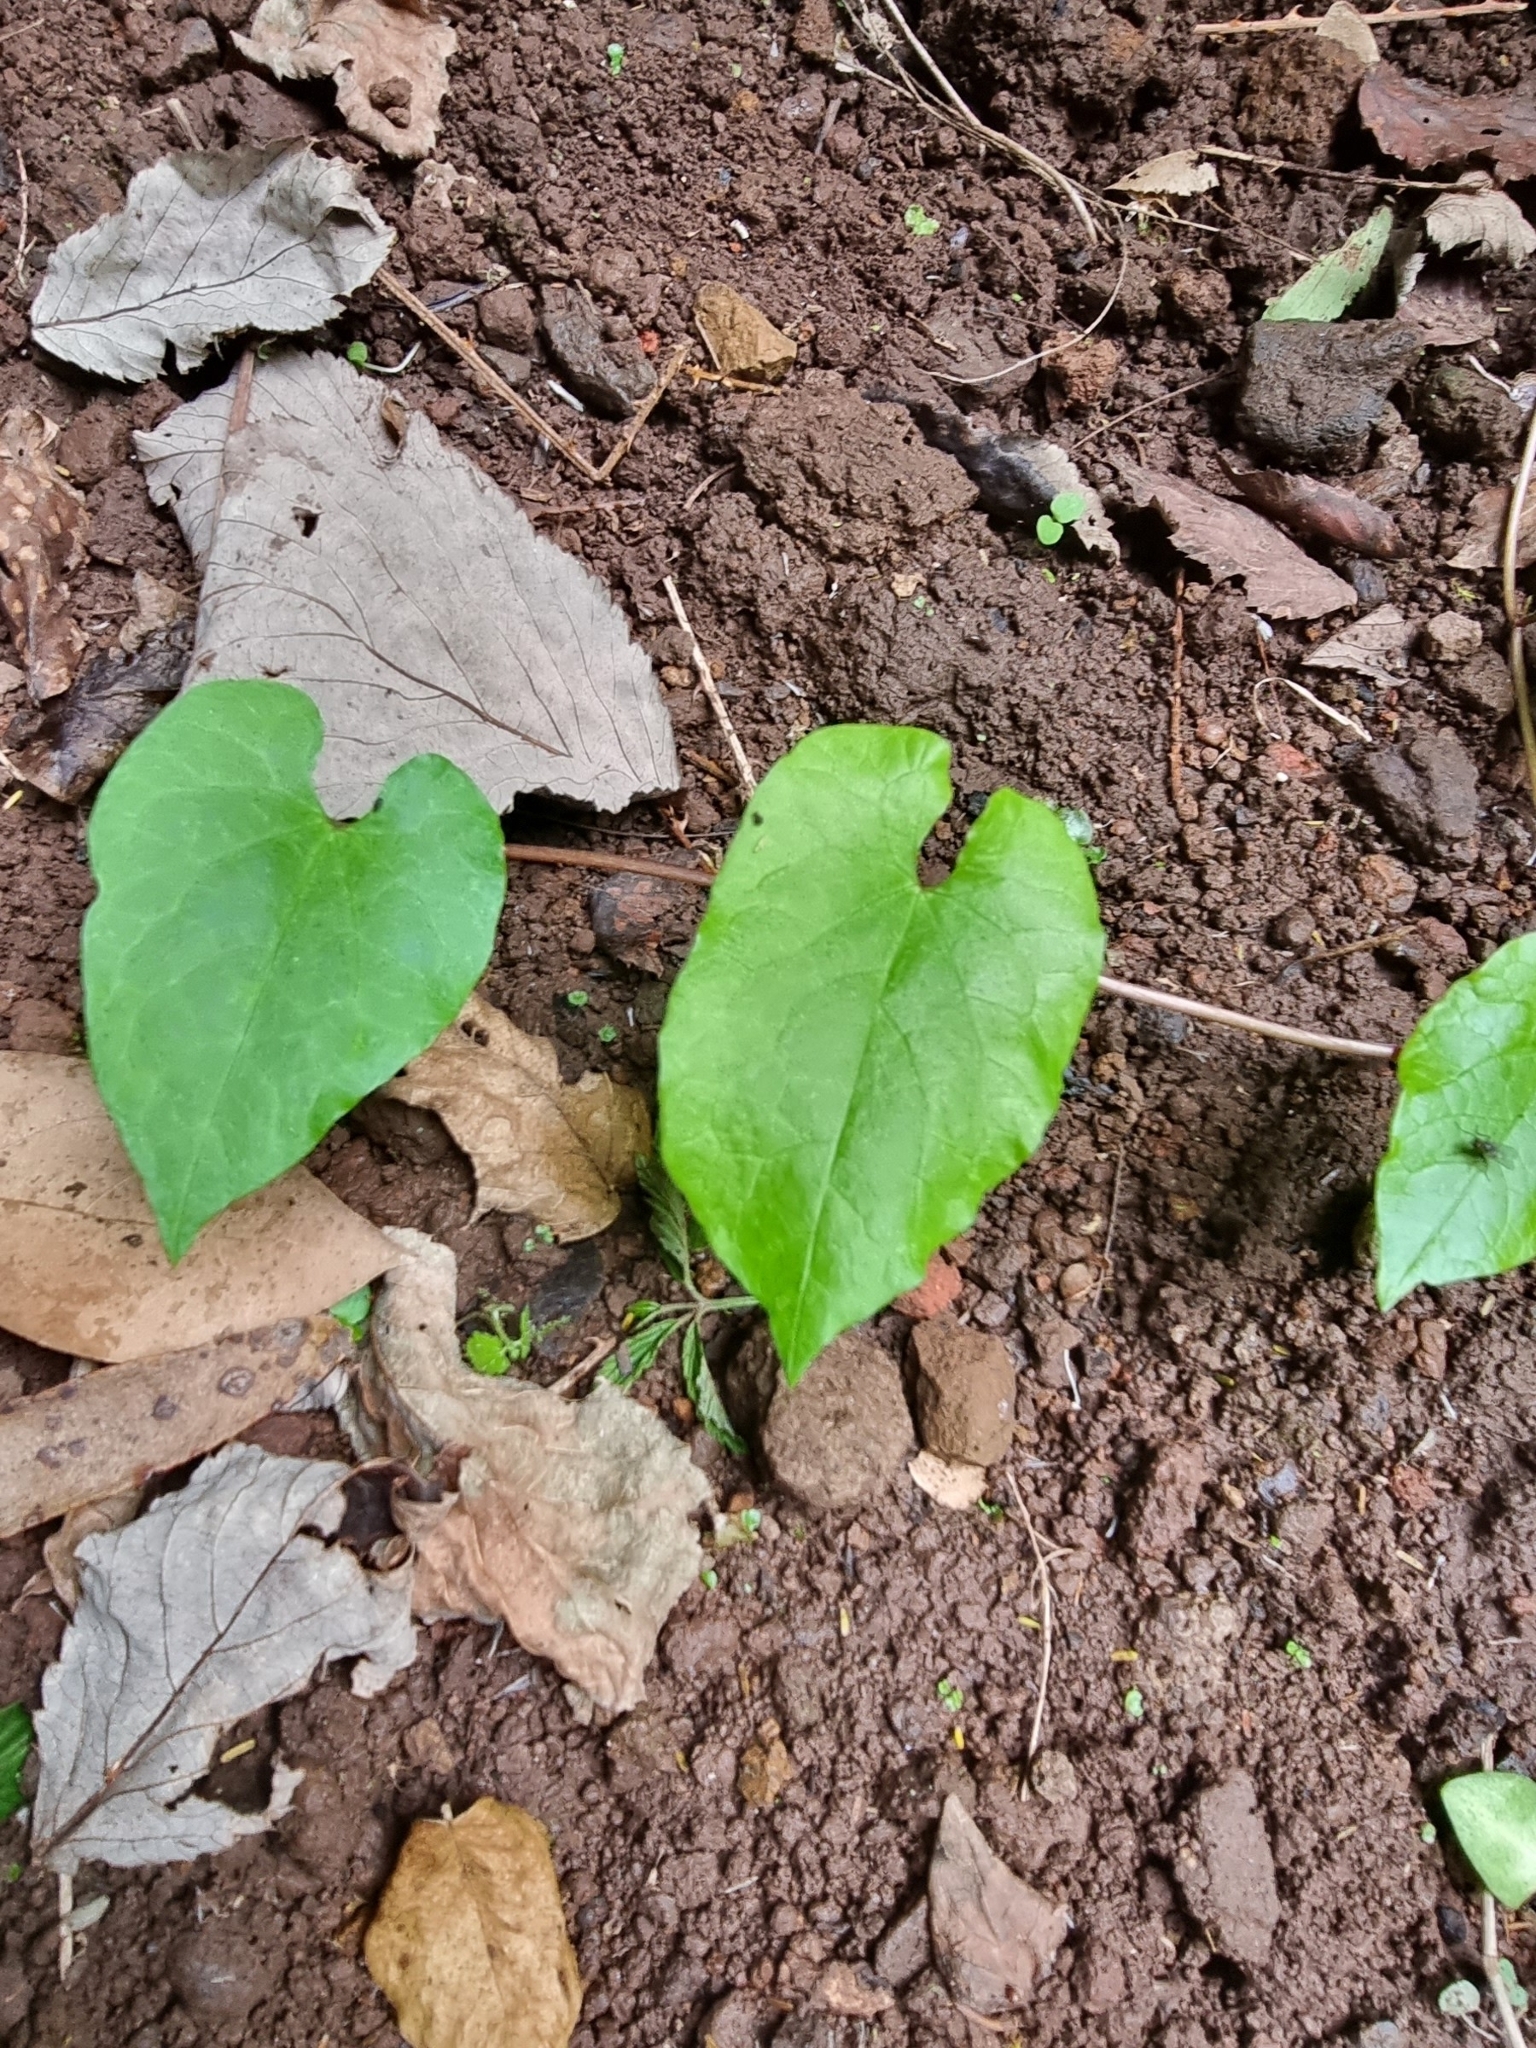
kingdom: Plantae
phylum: Tracheophyta
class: Magnoliopsida
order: Solanales
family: Convolvulaceae
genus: Calystegia
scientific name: Calystegia
